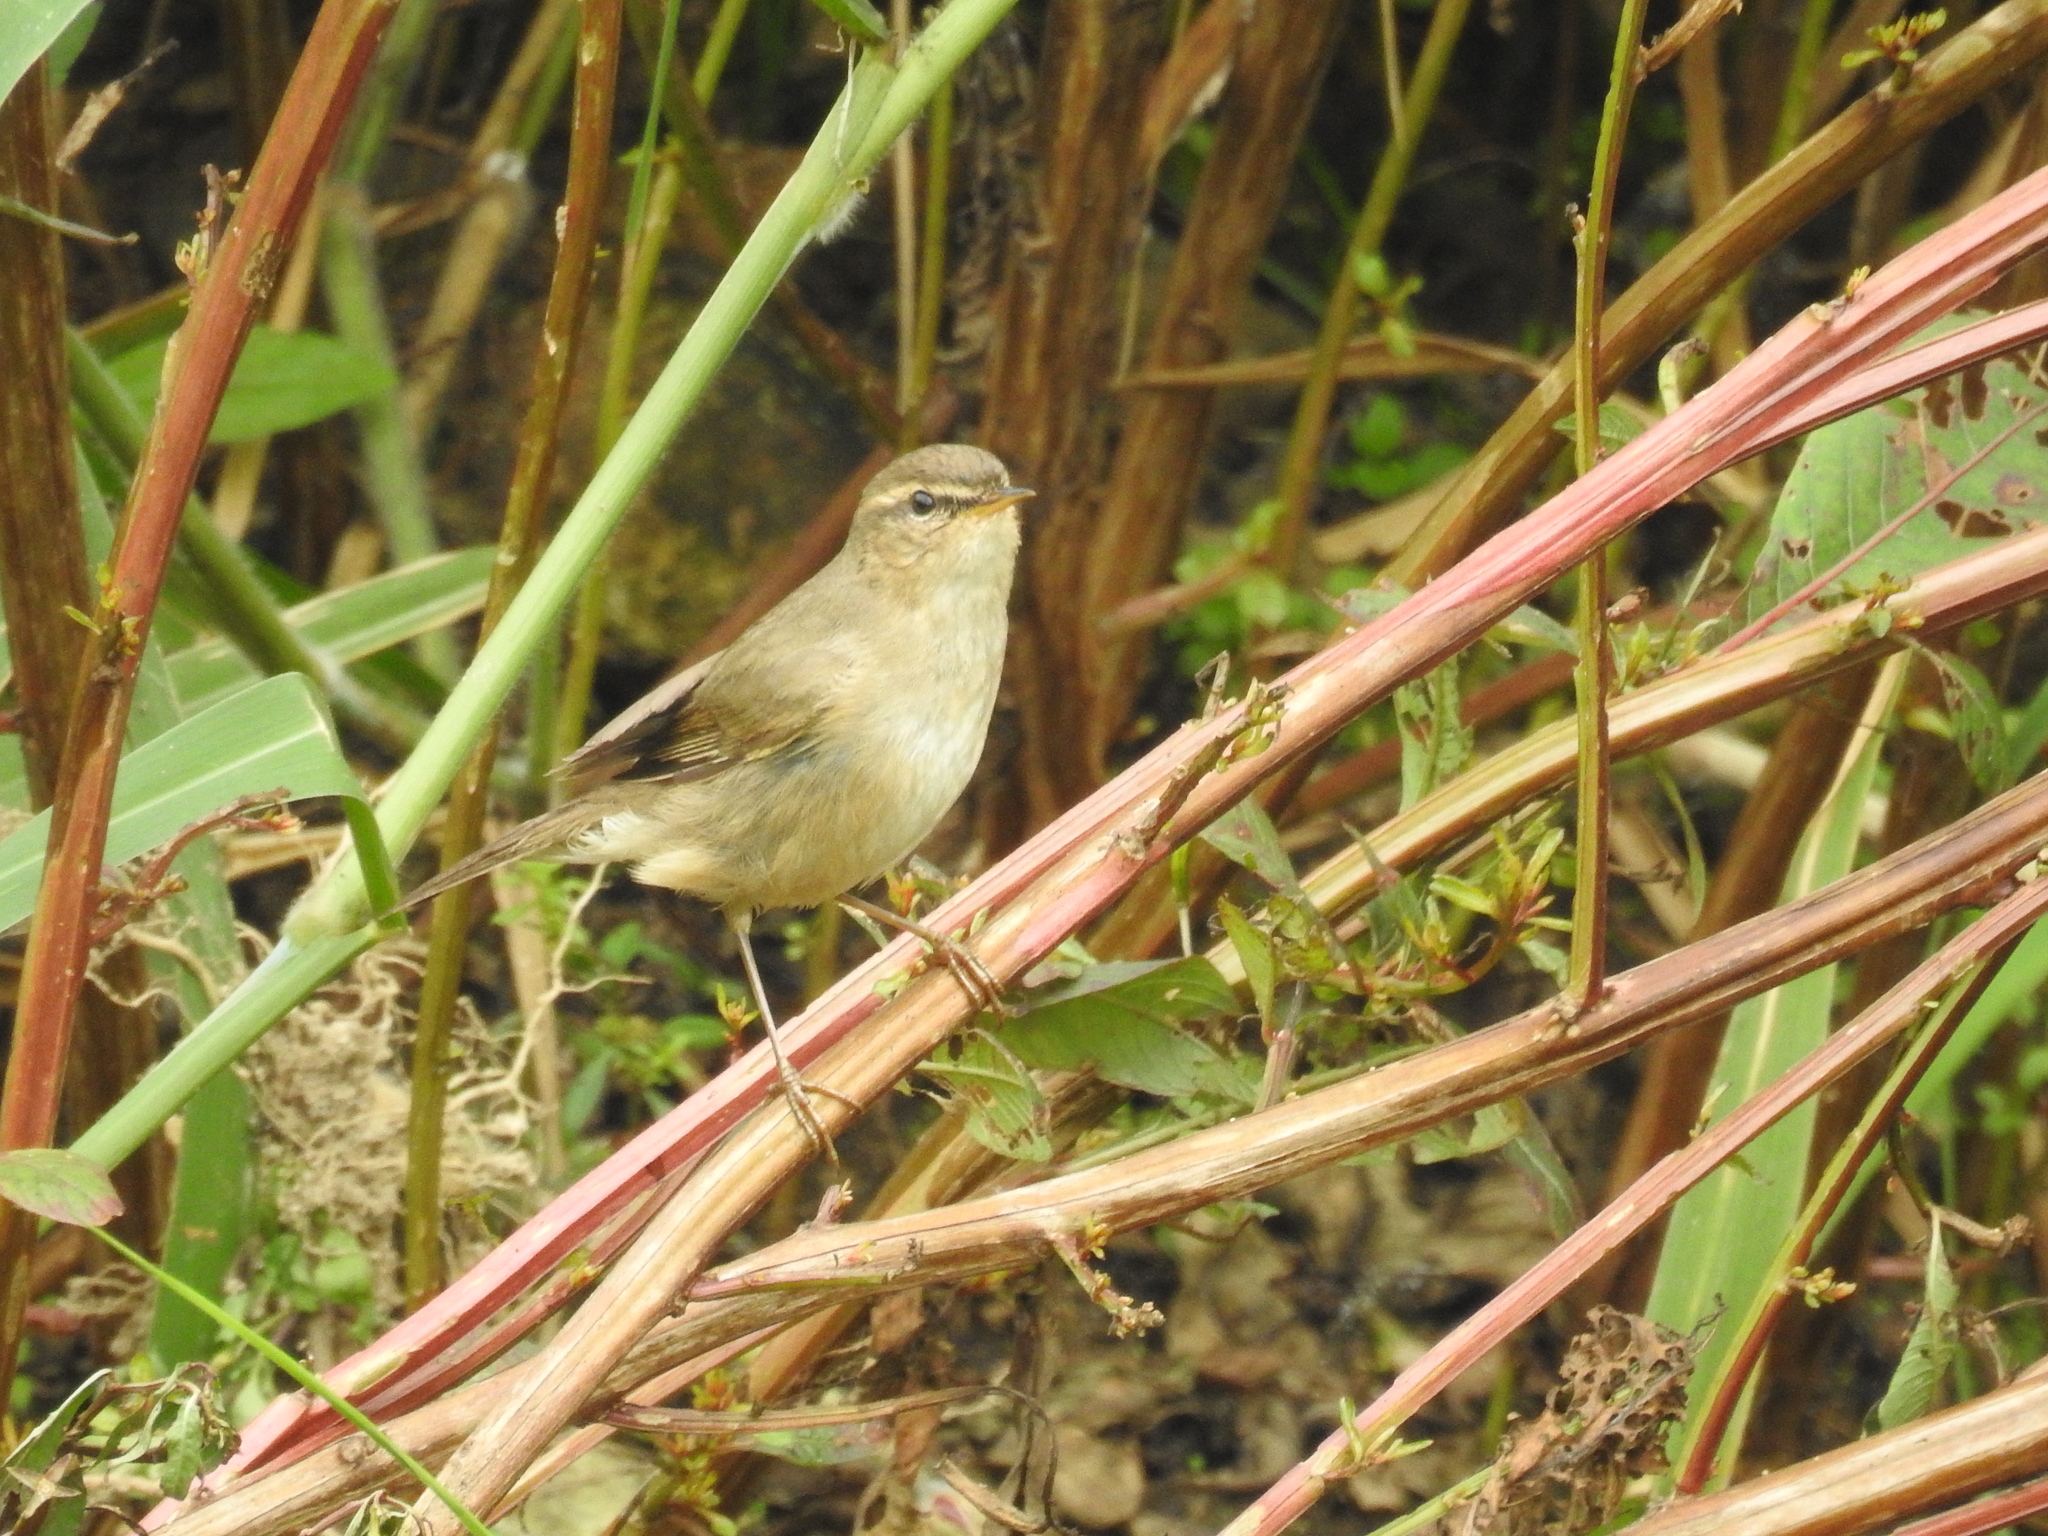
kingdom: Animalia
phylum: Chordata
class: Aves
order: Passeriformes
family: Phylloscopidae
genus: Phylloscopus
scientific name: Phylloscopus fuscatus
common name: Dusky warbler
